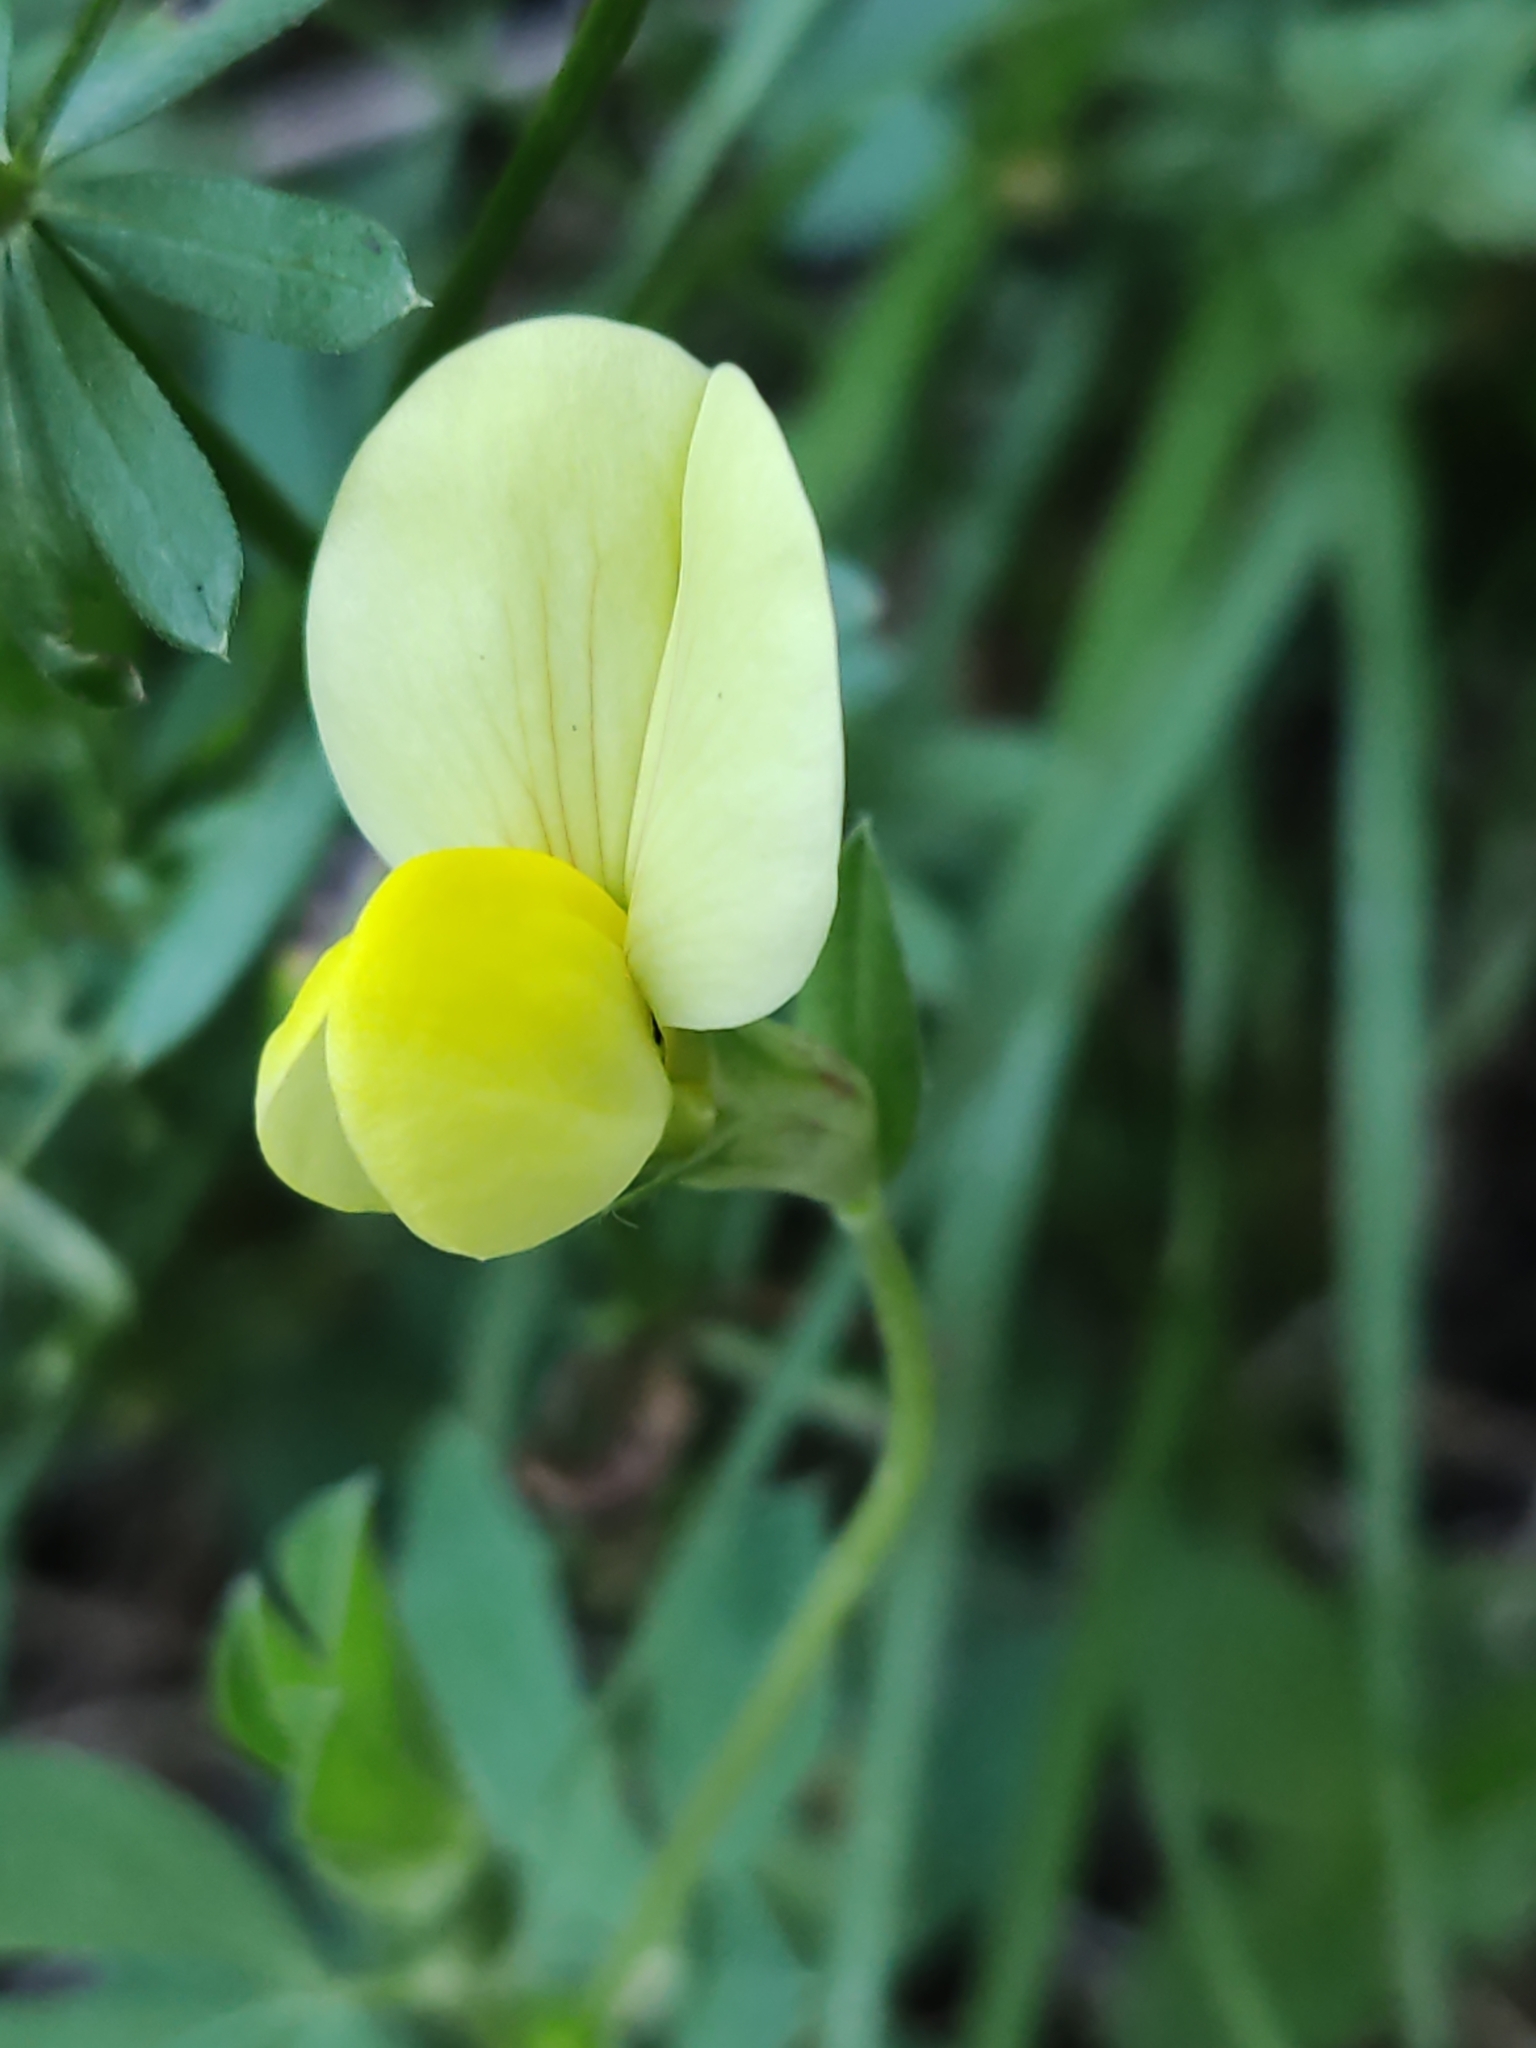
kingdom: Plantae
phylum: Tracheophyta
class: Magnoliopsida
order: Fabales
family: Fabaceae
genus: Lotus
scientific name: Lotus maritimus
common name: Dragon's-teeth
